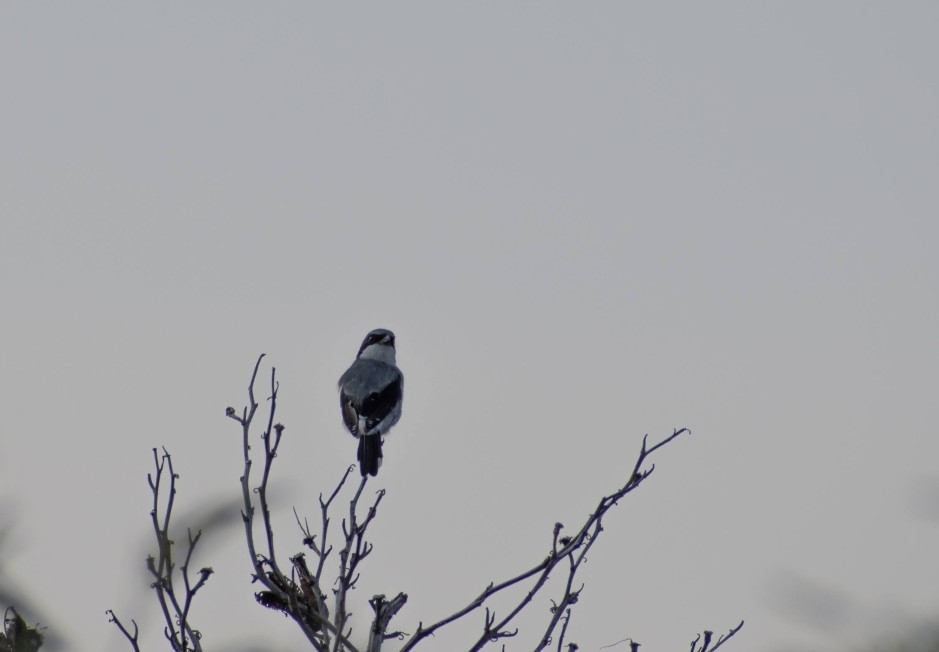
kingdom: Animalia
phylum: Chordata
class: Aves
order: Passeriformes
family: Laniidae
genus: Lanius
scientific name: Lanius ludovicianus
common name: Loggerhead shrike
